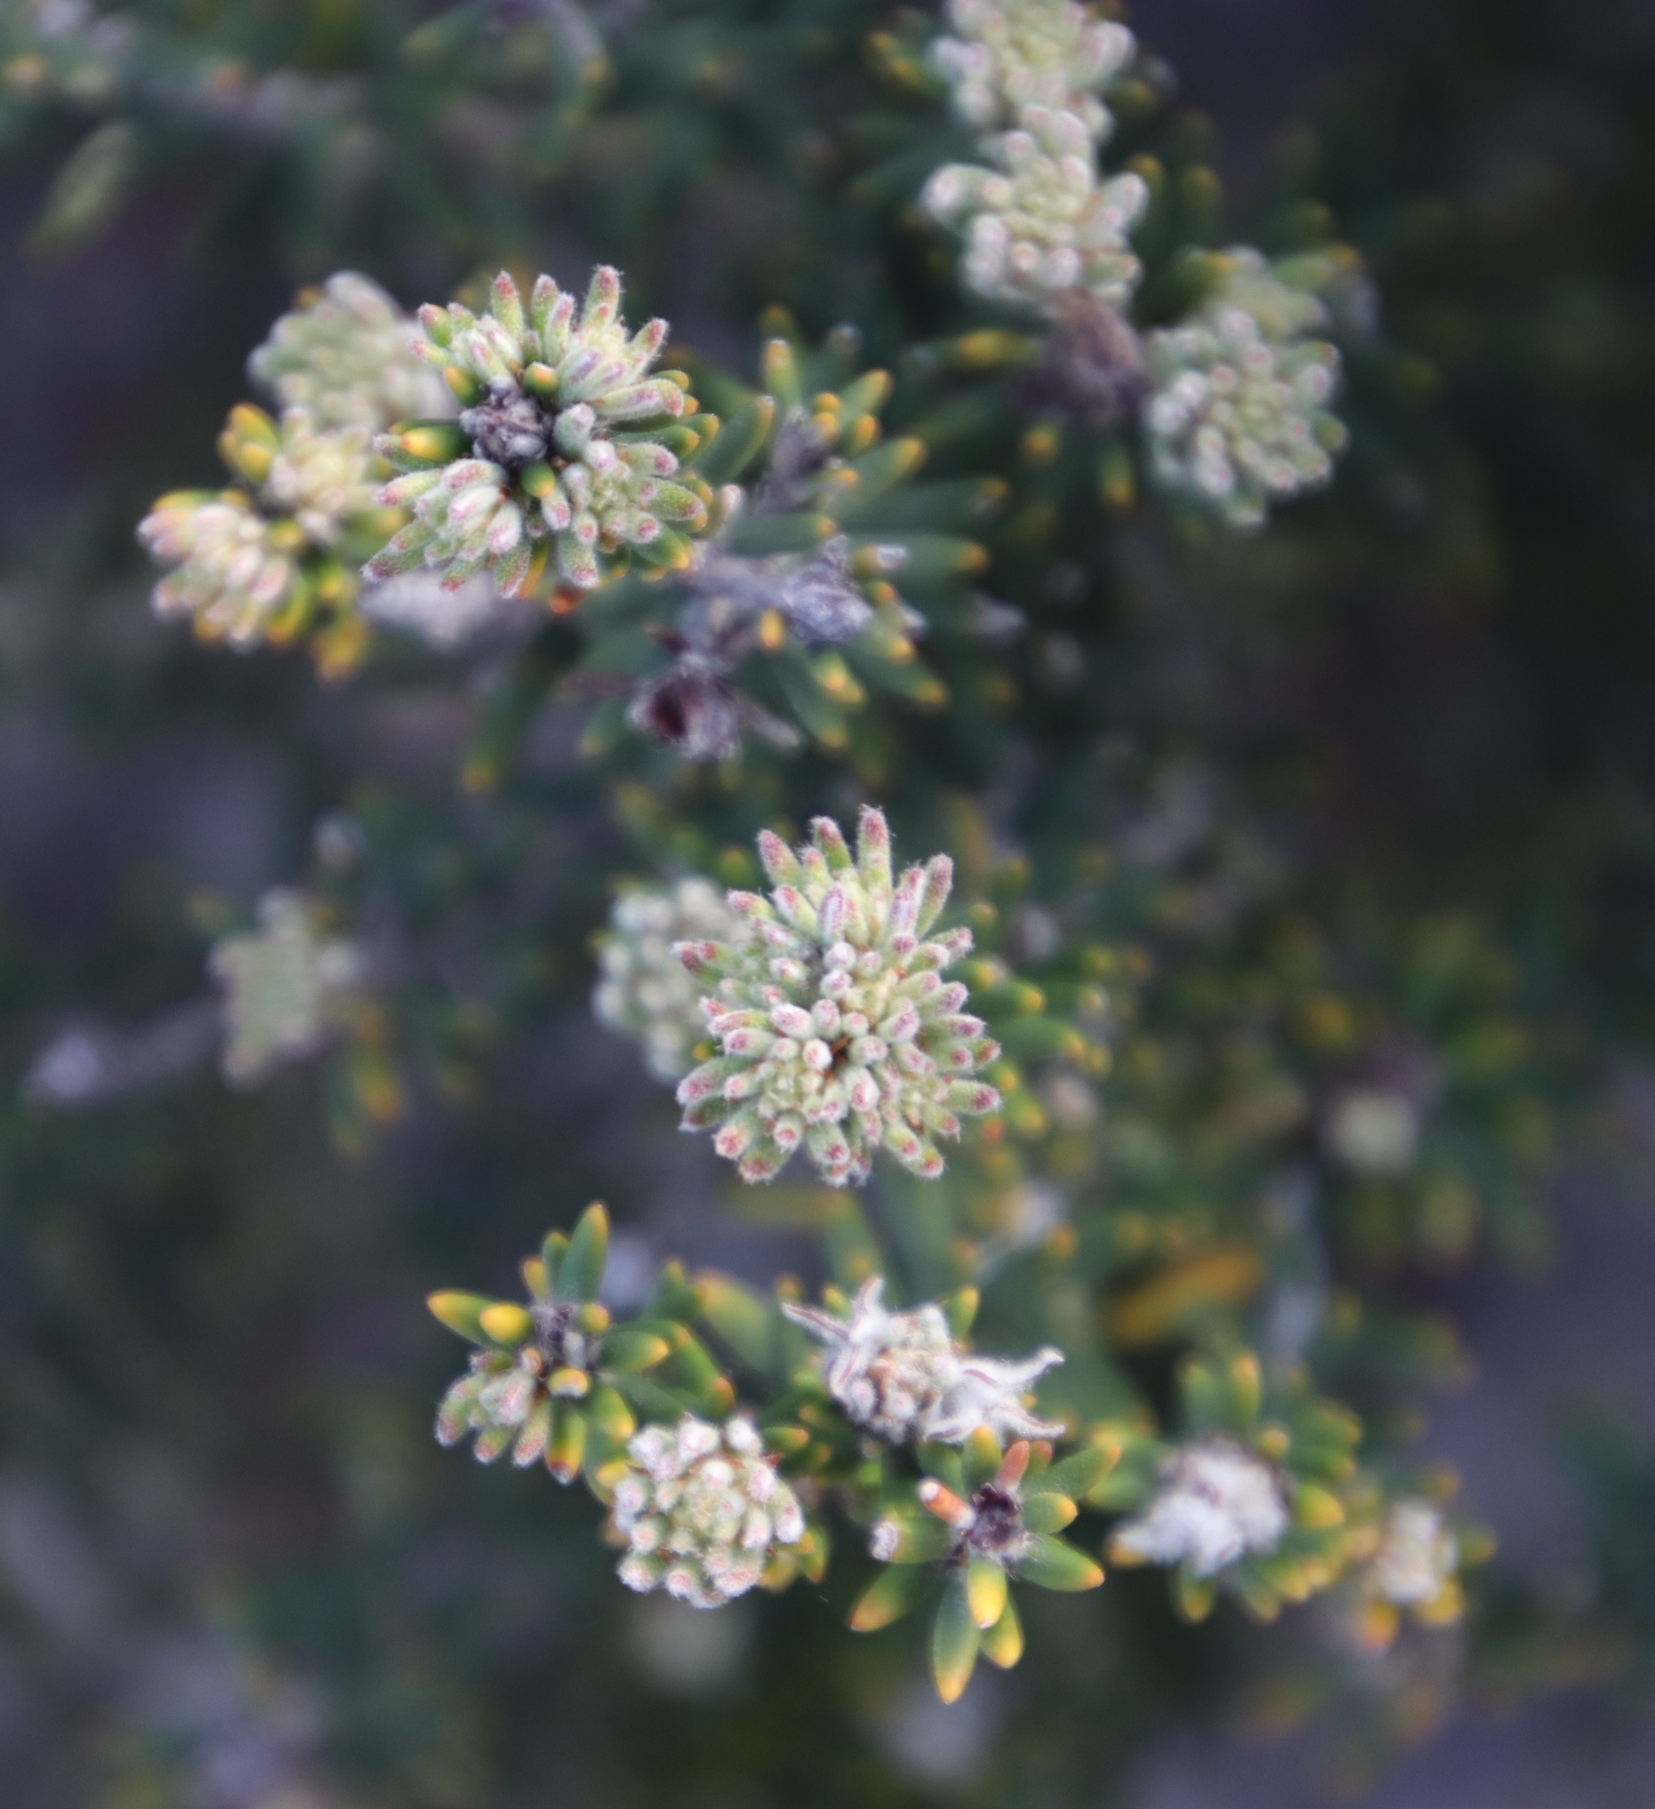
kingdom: Plantae
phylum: Tracheophyta
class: Magnoliopsida
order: Rosales
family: Rhamnaceae
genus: Trichocephalus
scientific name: Trichocephalus stipularis
